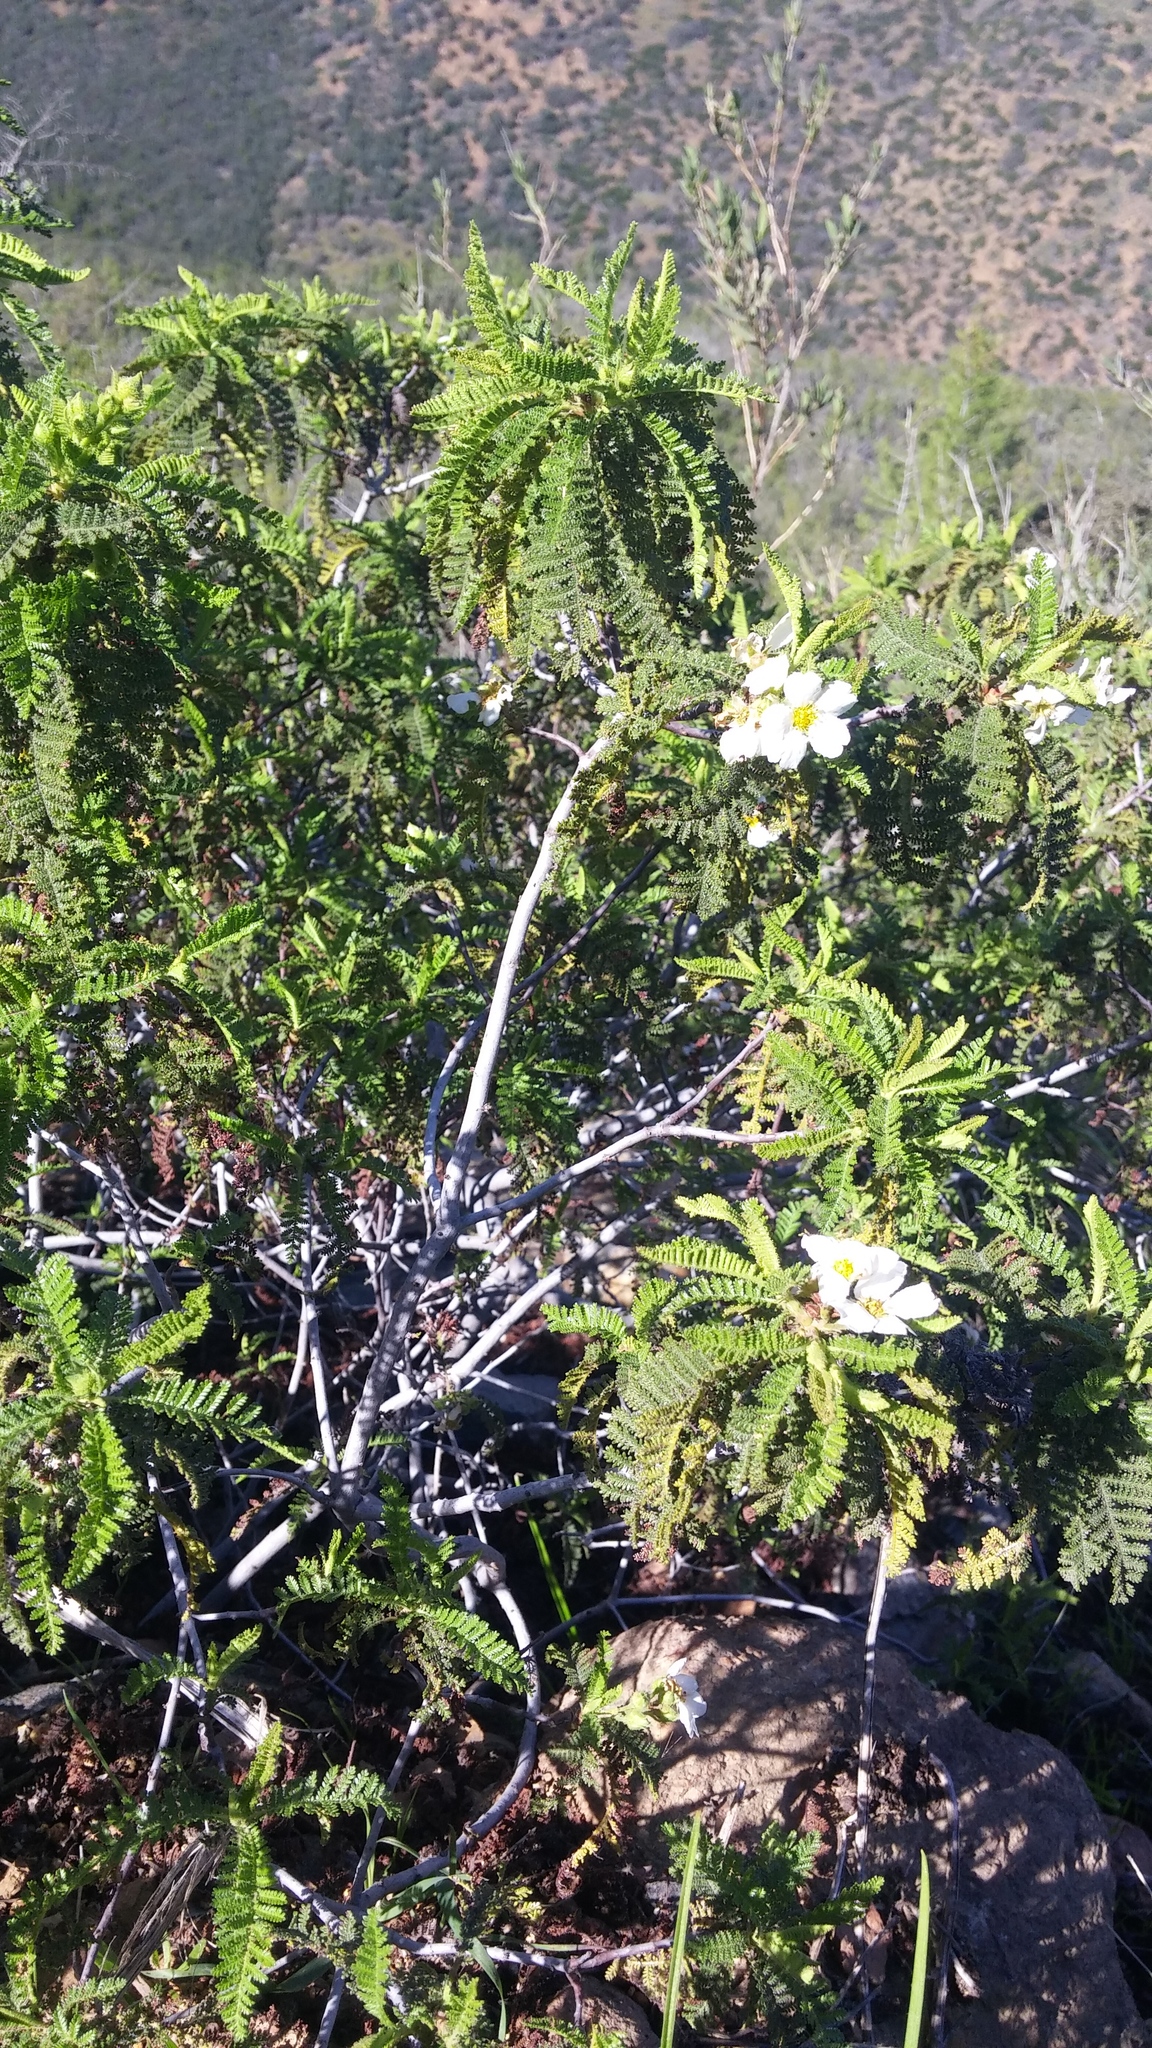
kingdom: Plantae
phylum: Tracheophyta
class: Magnoliopsida
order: Rosales
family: Rosaceae
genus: Chamaebatia
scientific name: Chamaebatia australis
